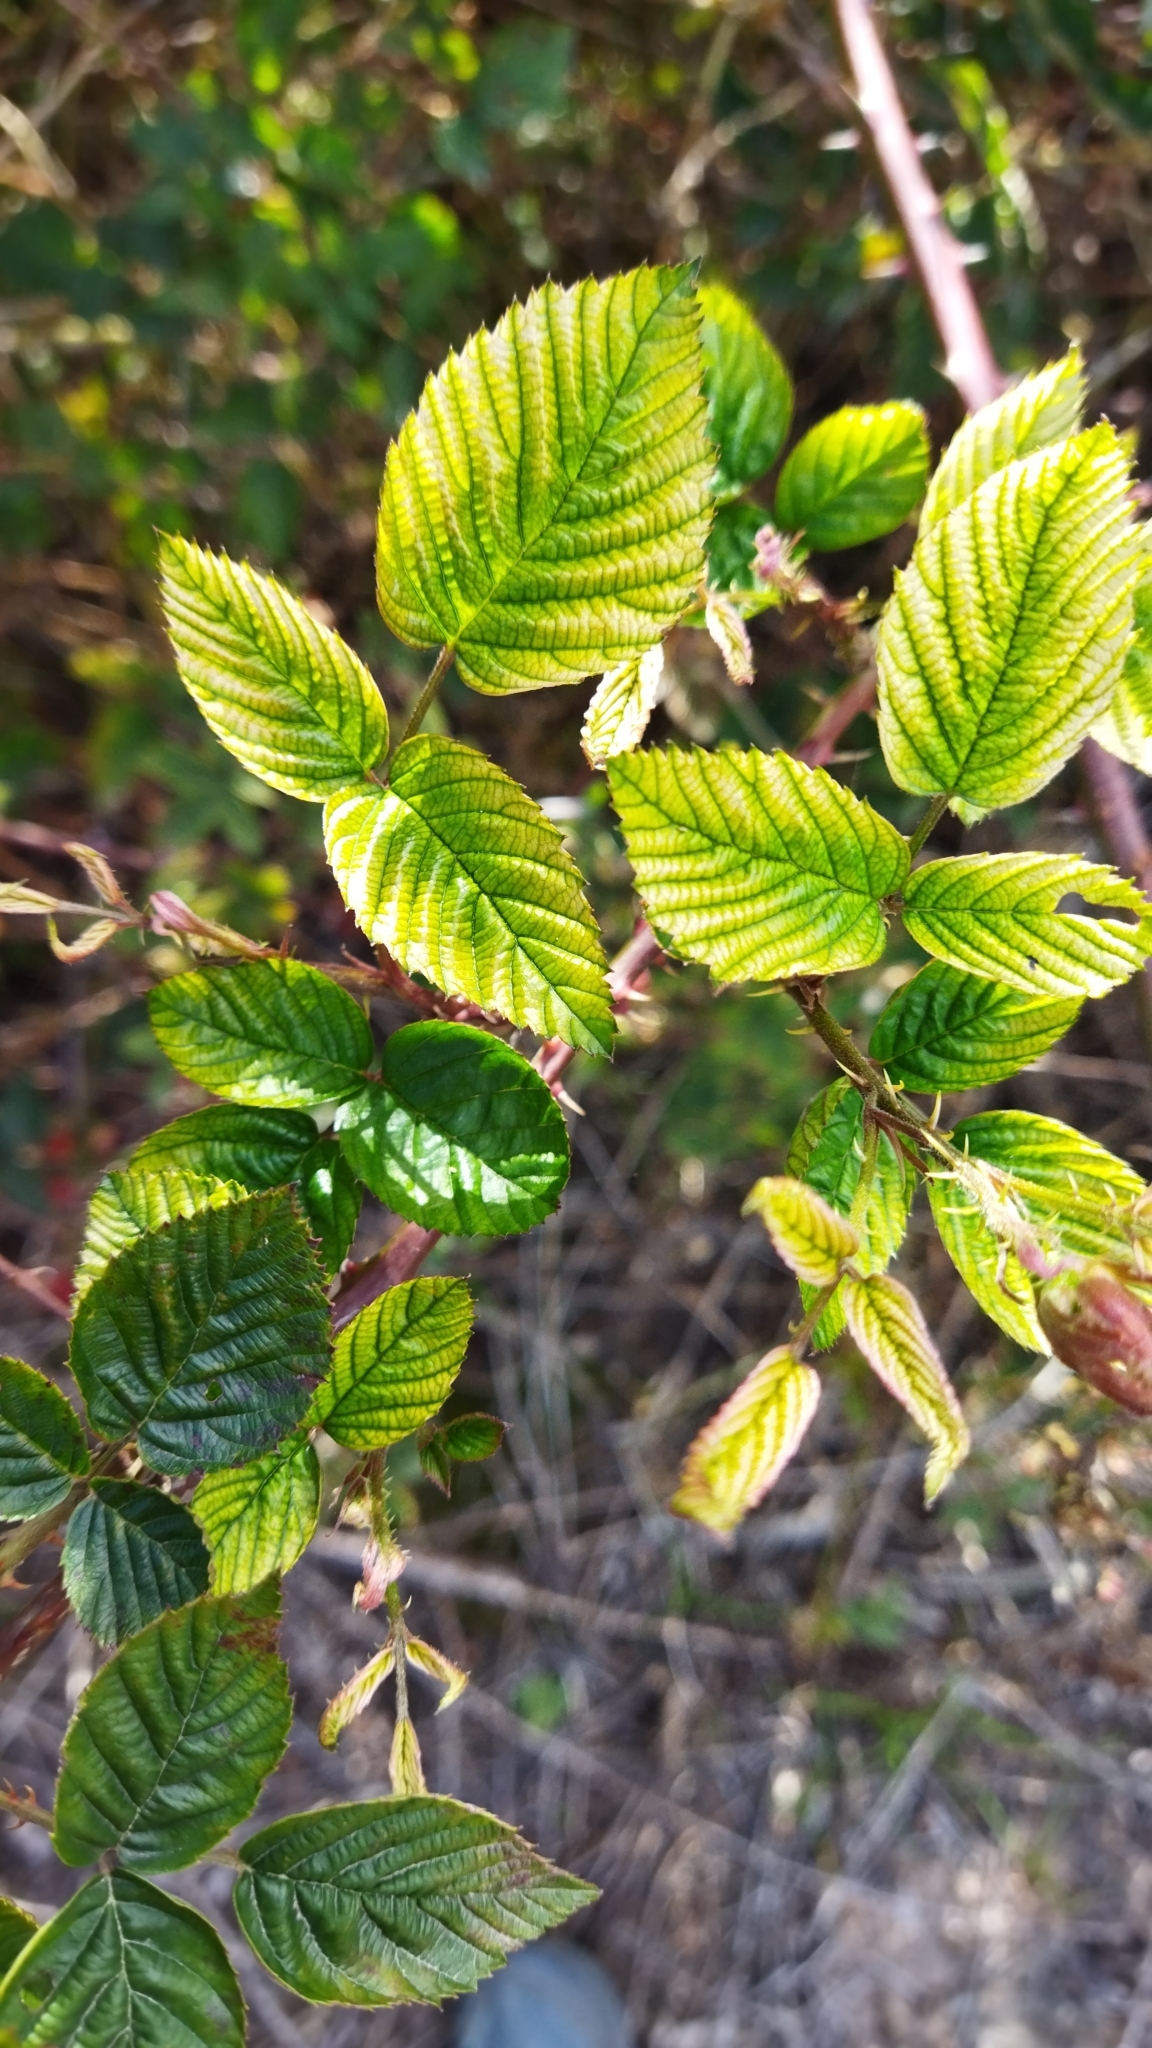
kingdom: Plantae
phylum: Tracheophyta
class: Magnoliopsida
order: Rosales
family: Rosaceae
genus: Rubus
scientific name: Rubus affinis
